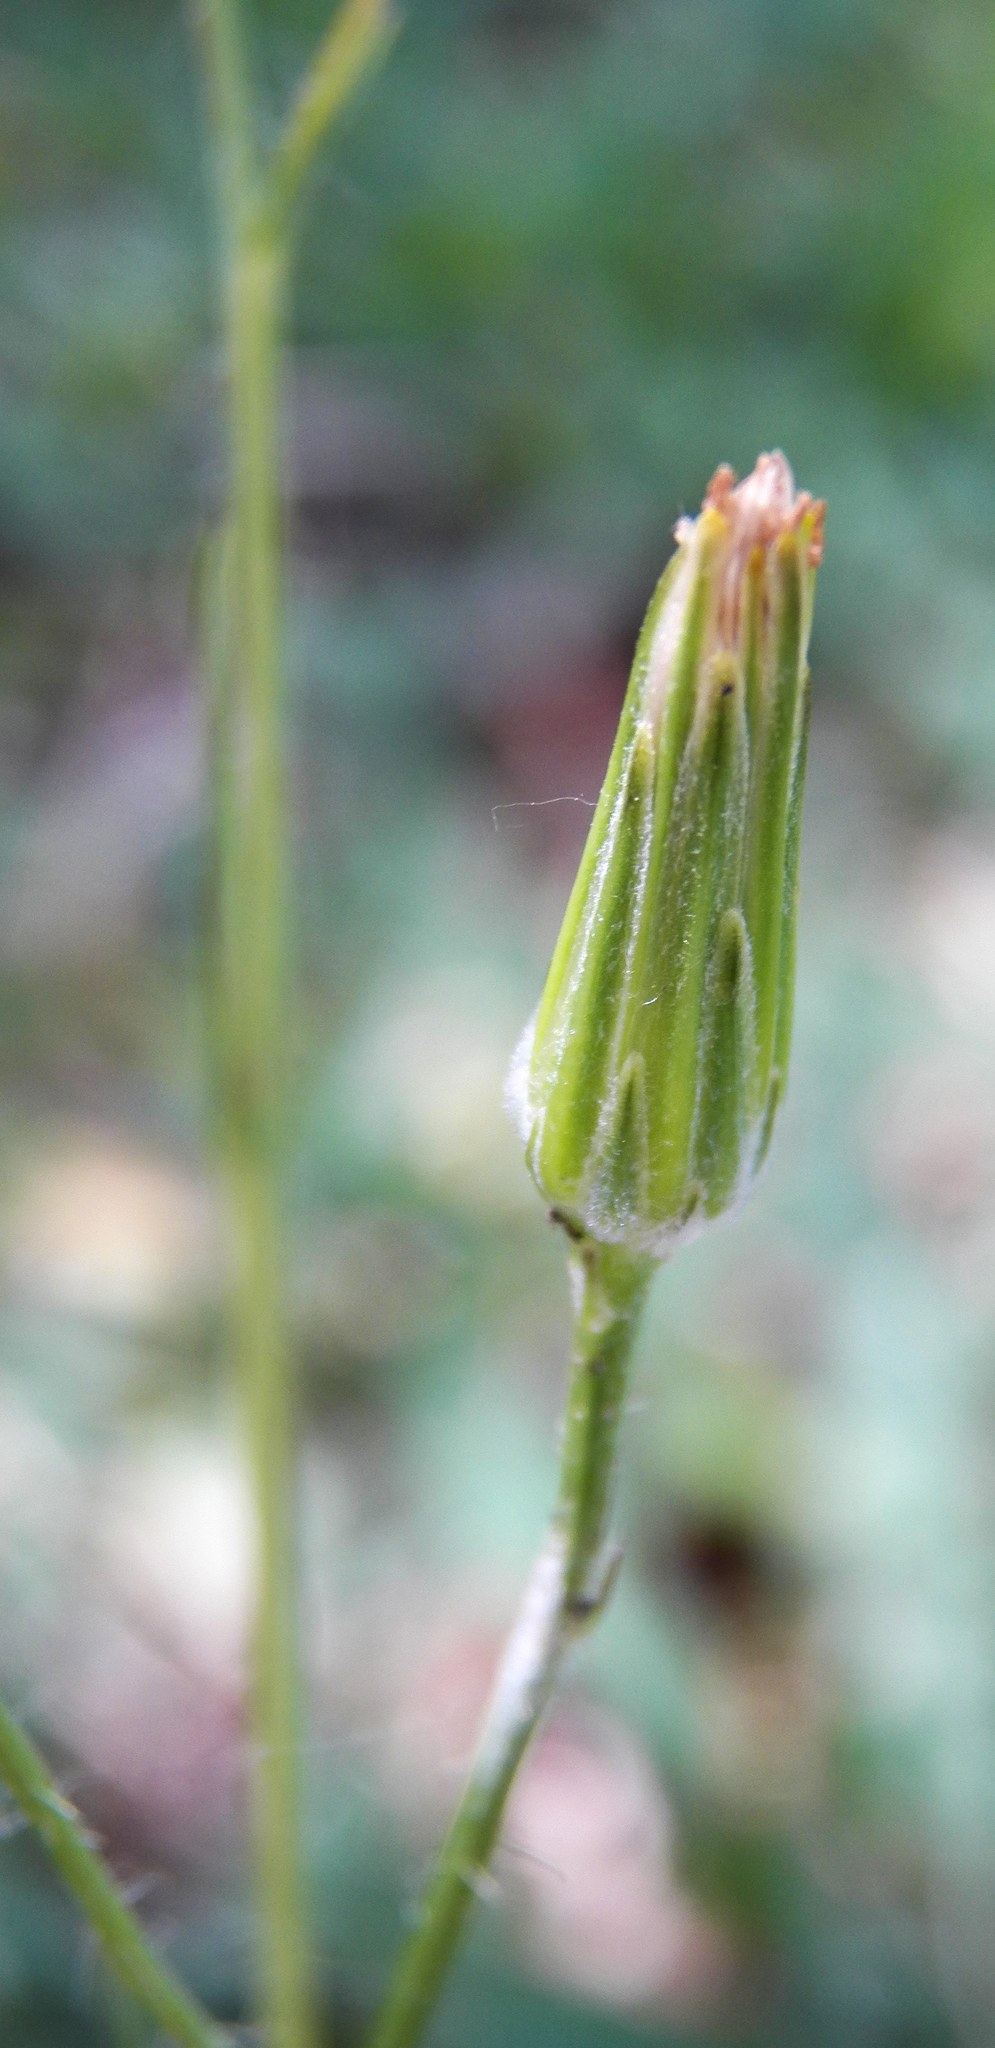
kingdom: Plantae
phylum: Tracheophyta
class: Magnoliopsida
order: Asterales
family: Asteraceae
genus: Hypochaeris
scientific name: Hypochaeris albiflora
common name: White flatweed
